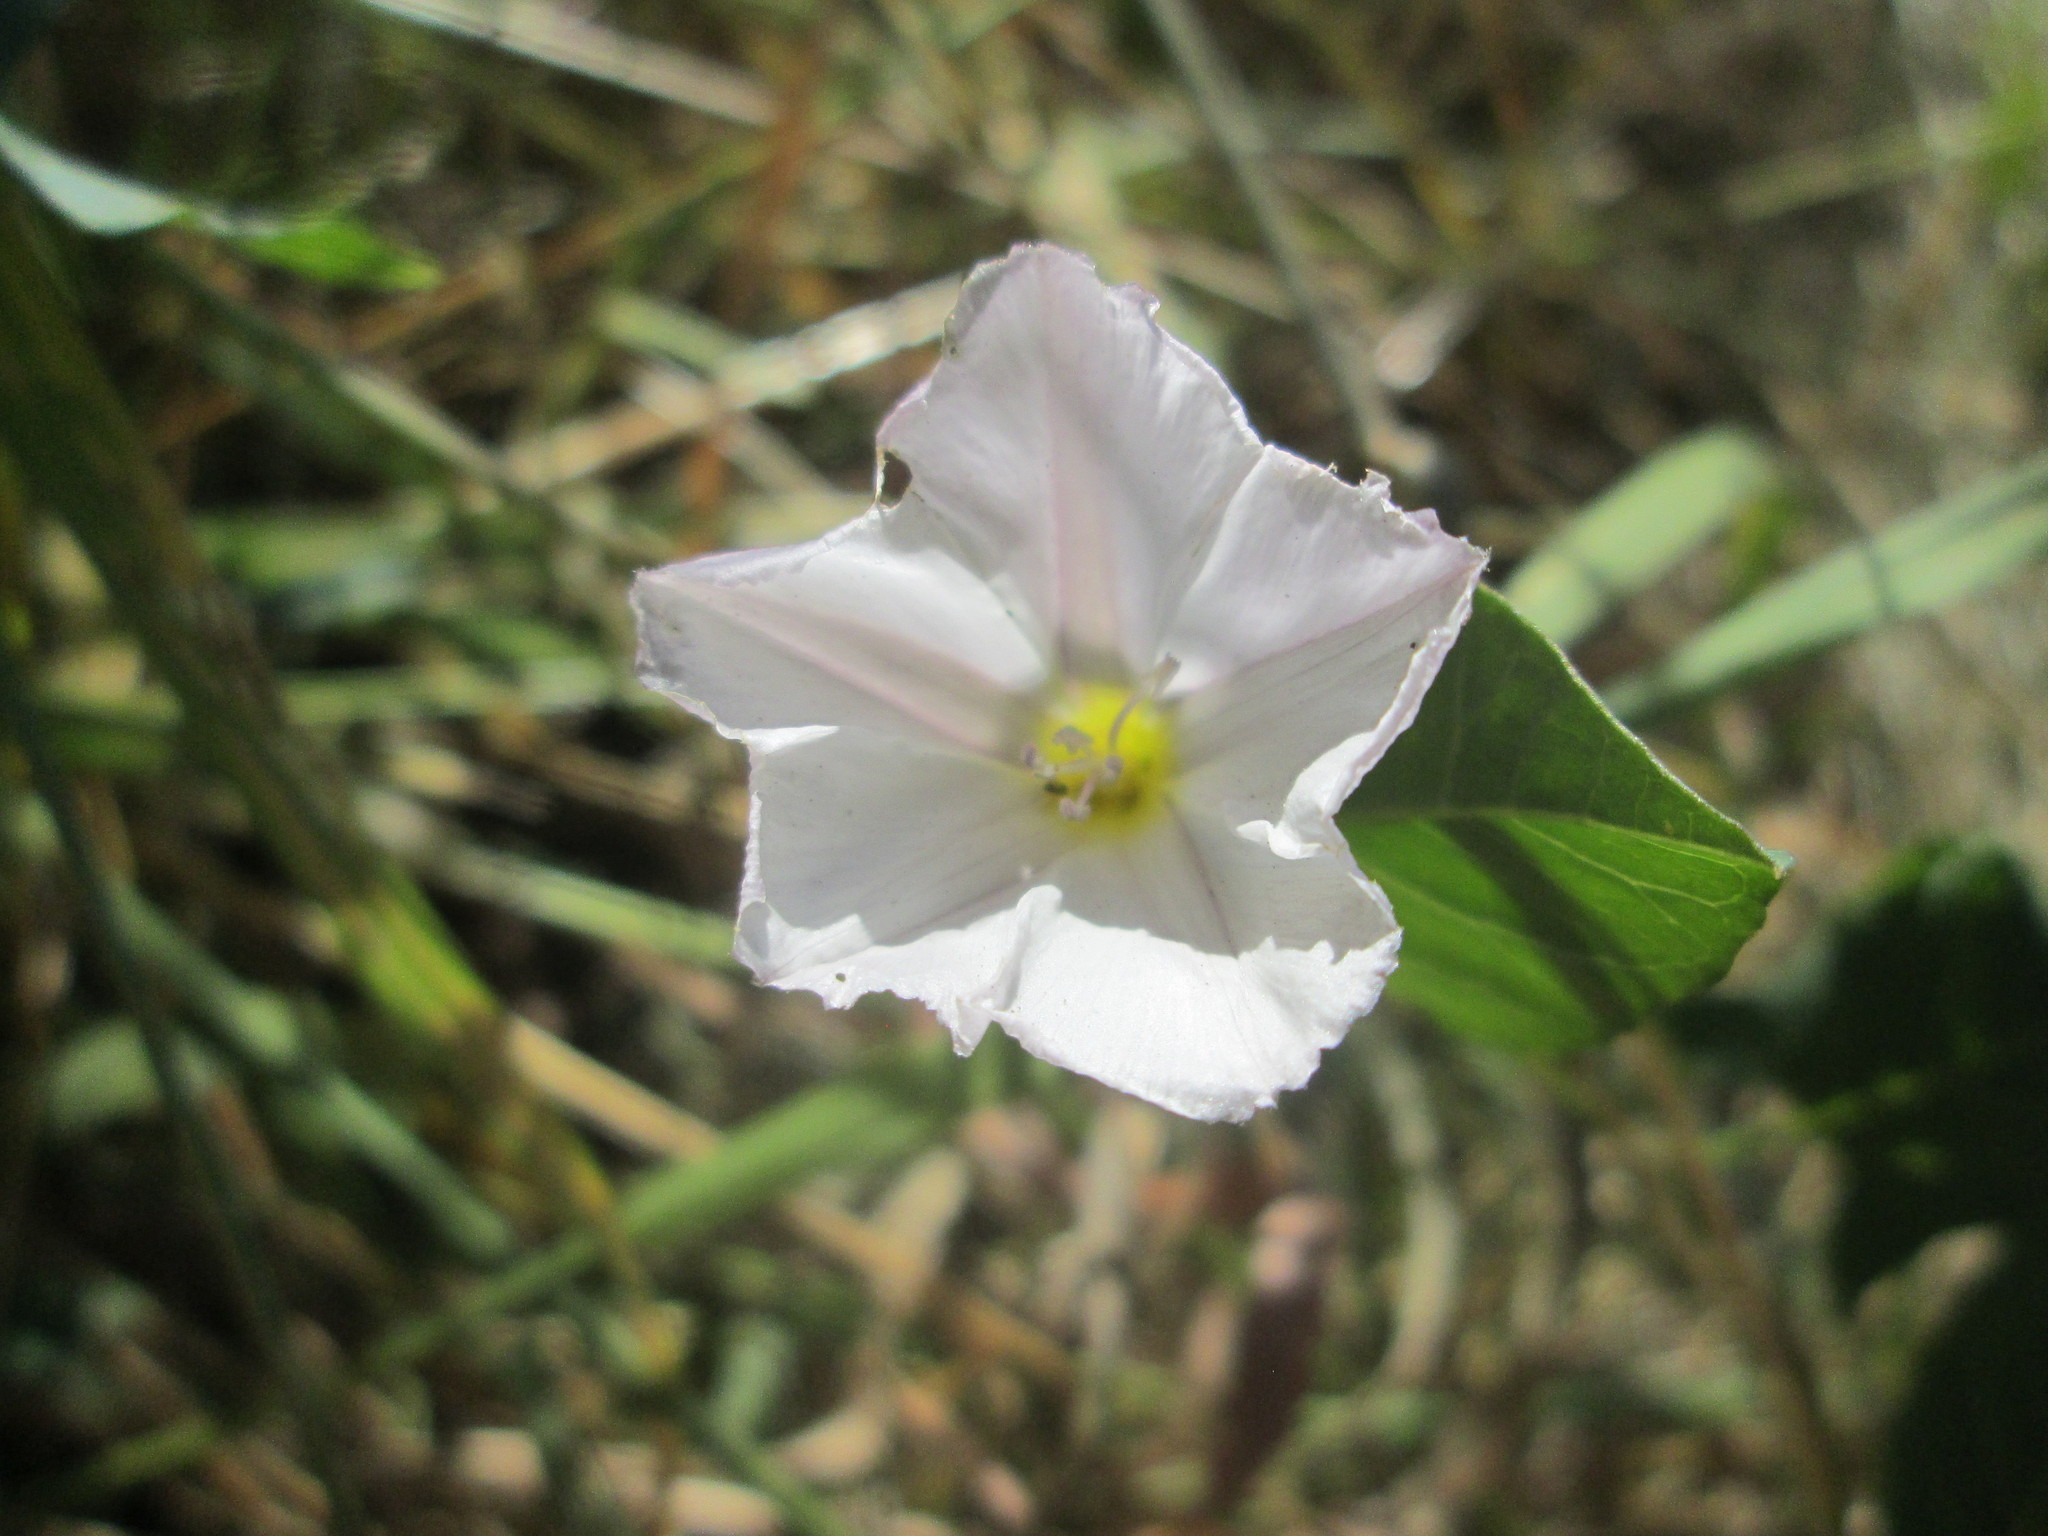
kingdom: Plantae
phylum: Tracheophyta
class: Magnoliopsida
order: Solanales
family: Convolvulaceae
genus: Convolvulus
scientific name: Convolvulus arvensis
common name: Field bindweed
